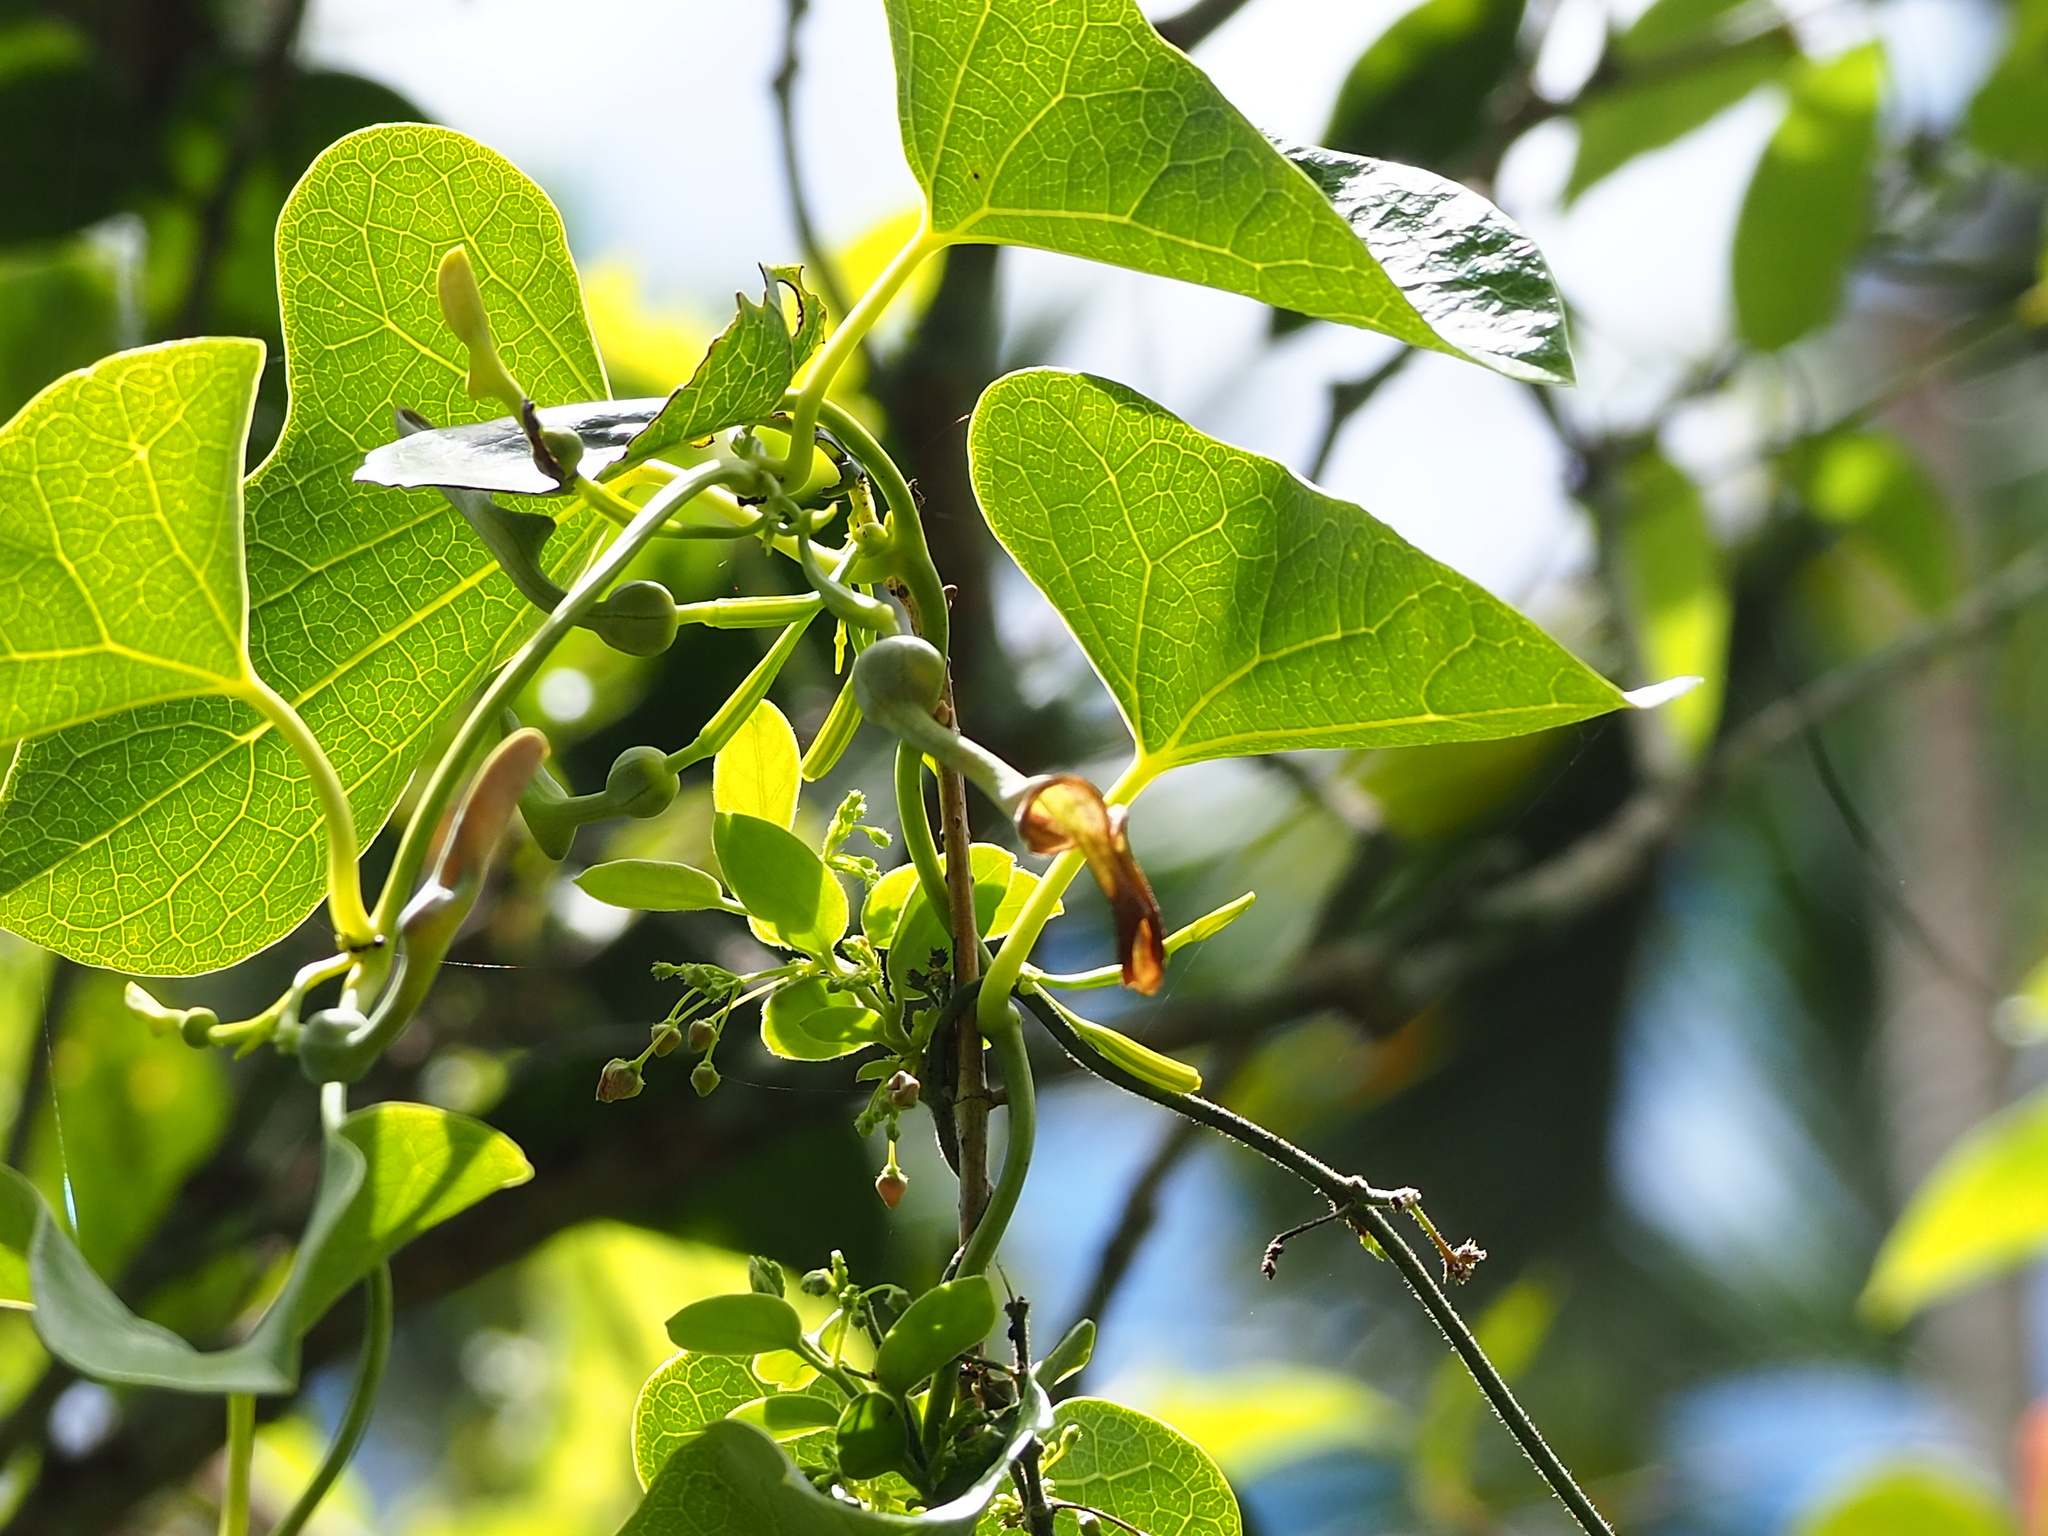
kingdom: Plantae
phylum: Tracheophyta
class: Magnoliopsida
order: Piperales
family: Aristolochiaceae
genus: Aristolochia
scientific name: Aristolochia zollingeriana
